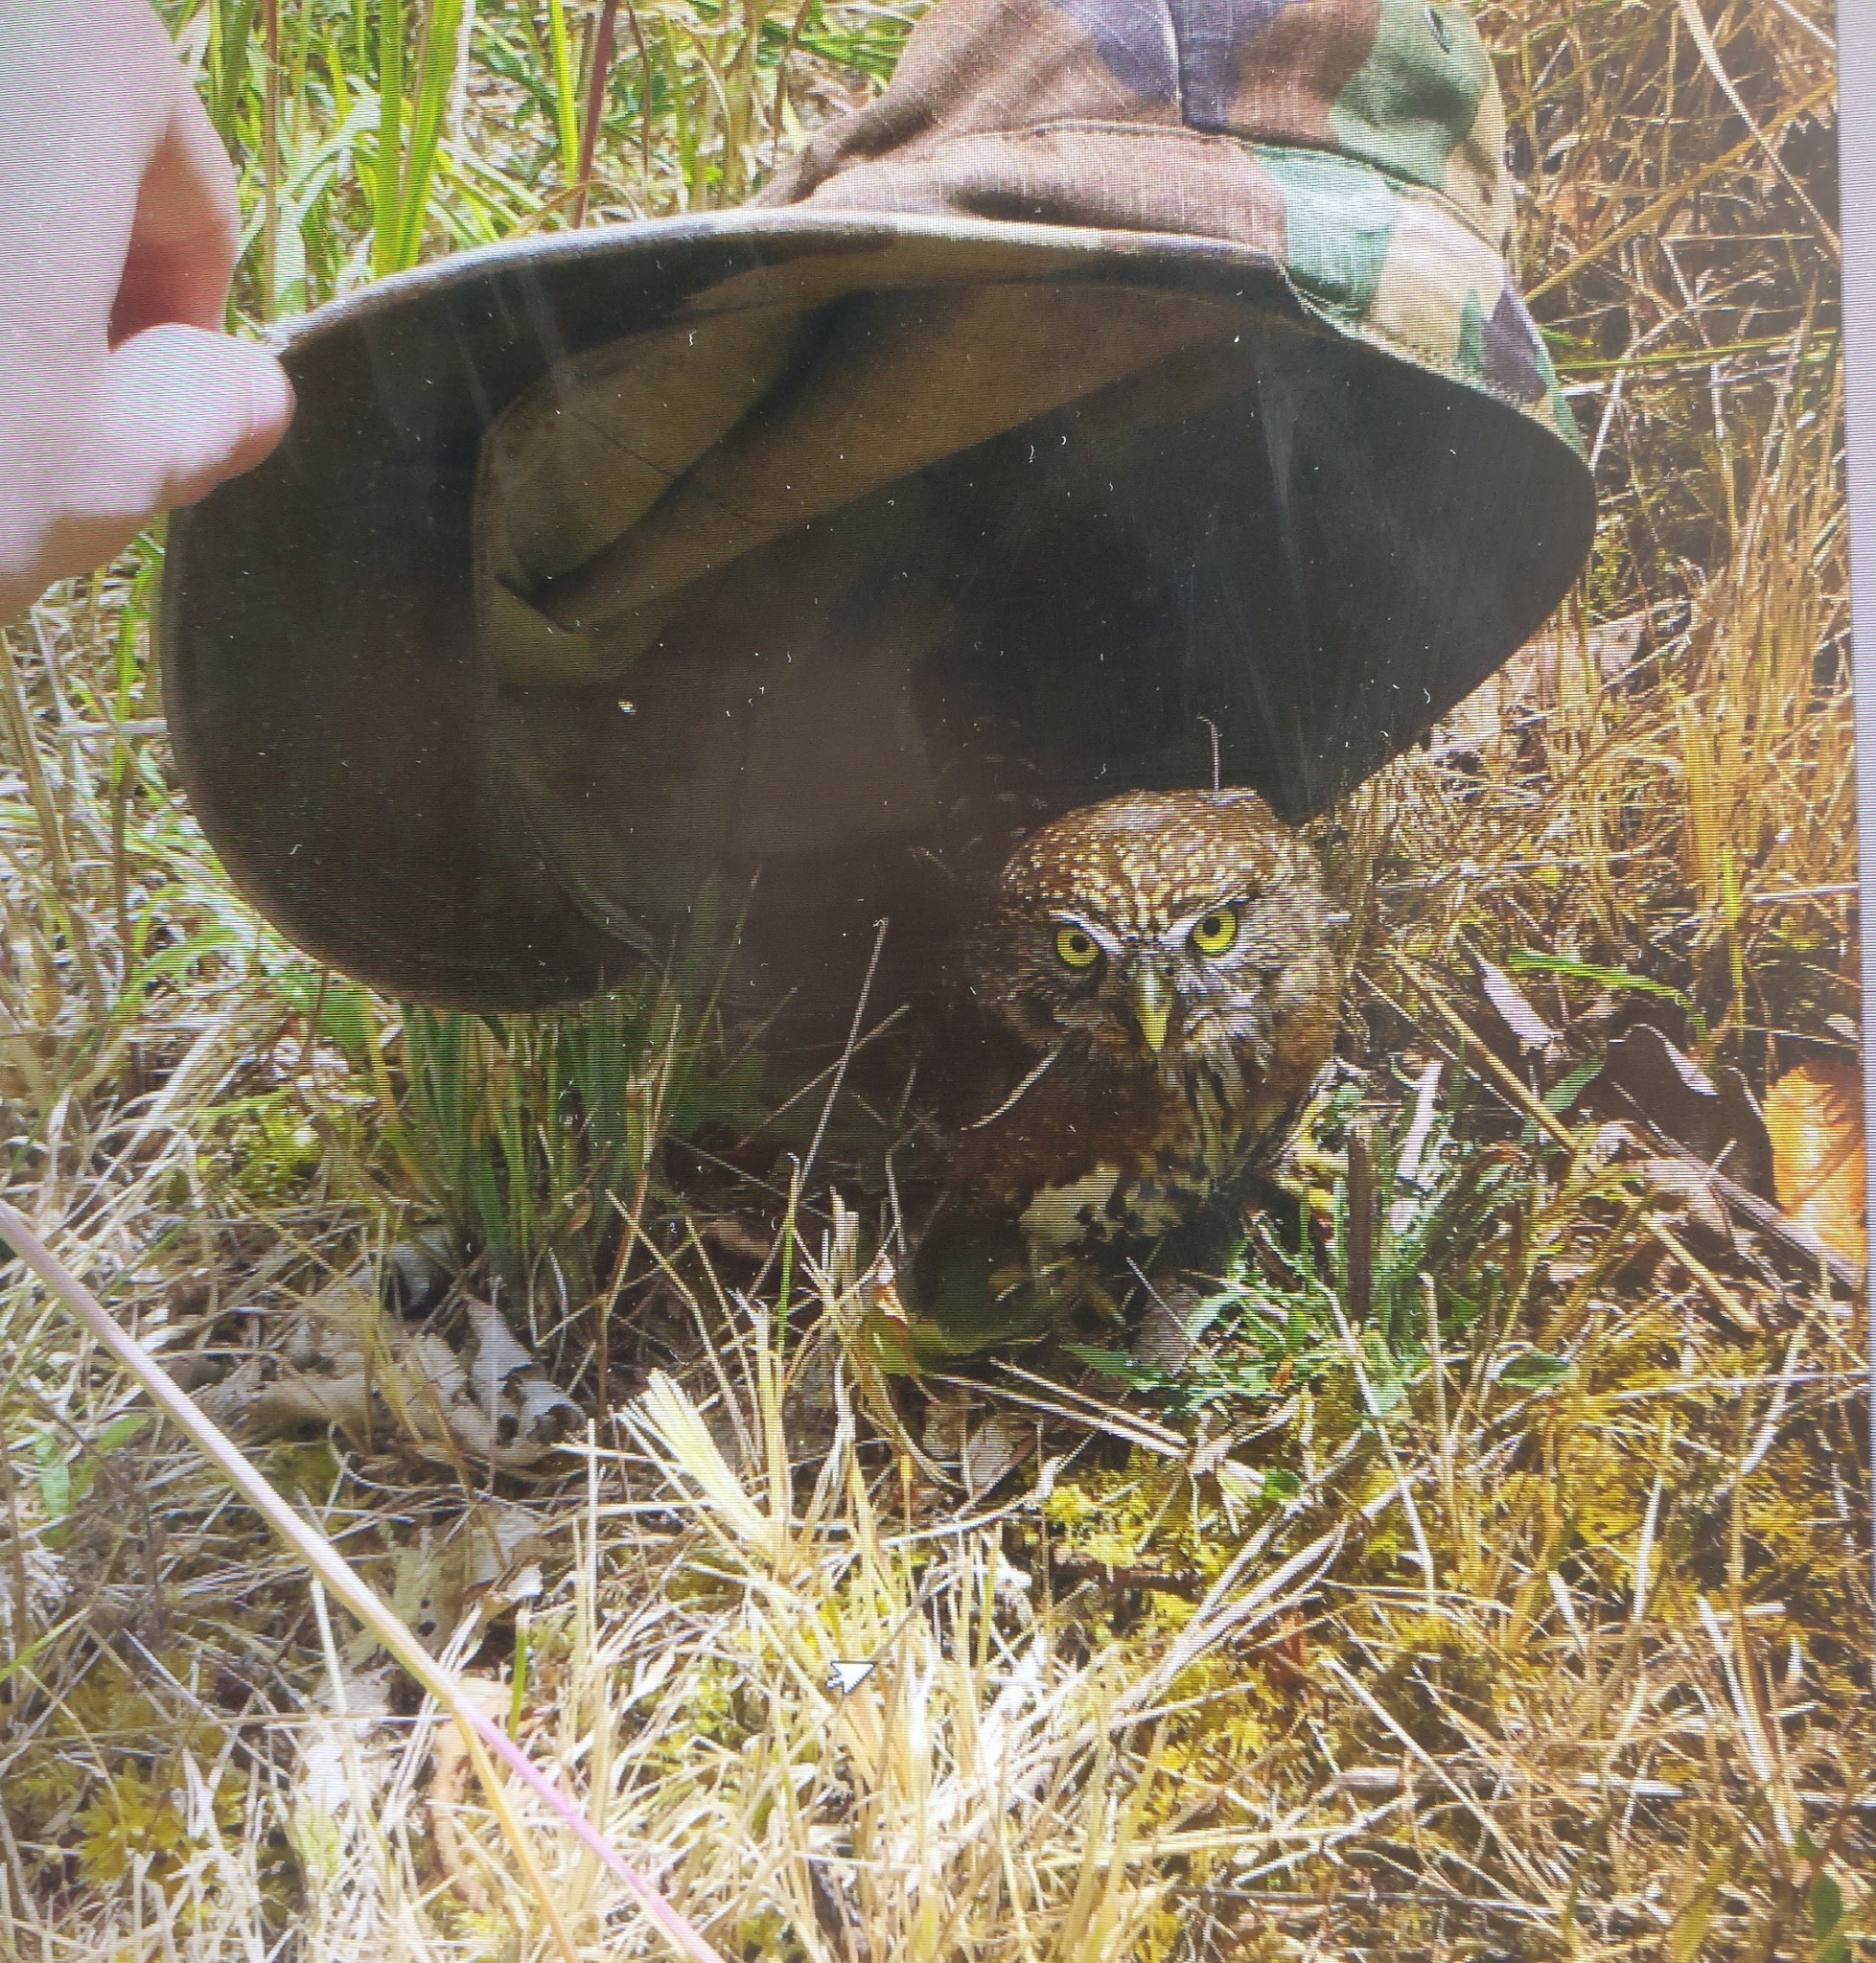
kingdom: Animalia
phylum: Chordata
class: Aves
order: Strigiformes
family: Strigidae
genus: Glaucidium
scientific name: Glaucidium californicum
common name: Northern pygmy owl
